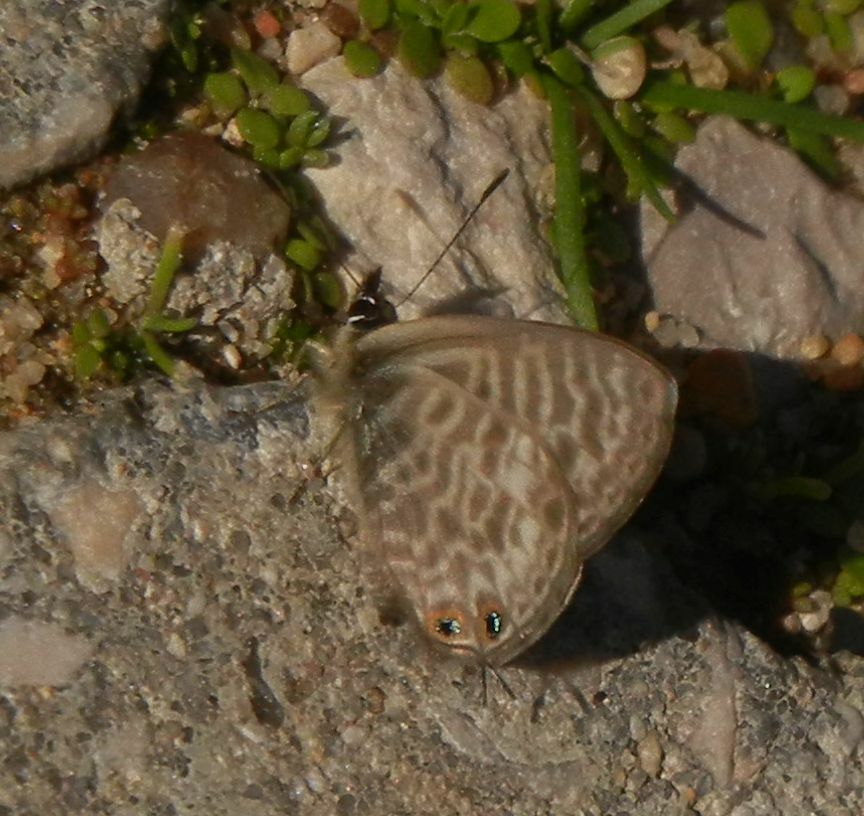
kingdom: Animalia
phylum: Arthropoda
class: Insecta
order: Lepidoptera
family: Lycaenidae
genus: Leptotes
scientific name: Leptotes pirithous
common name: Lang's short-tailed blue
